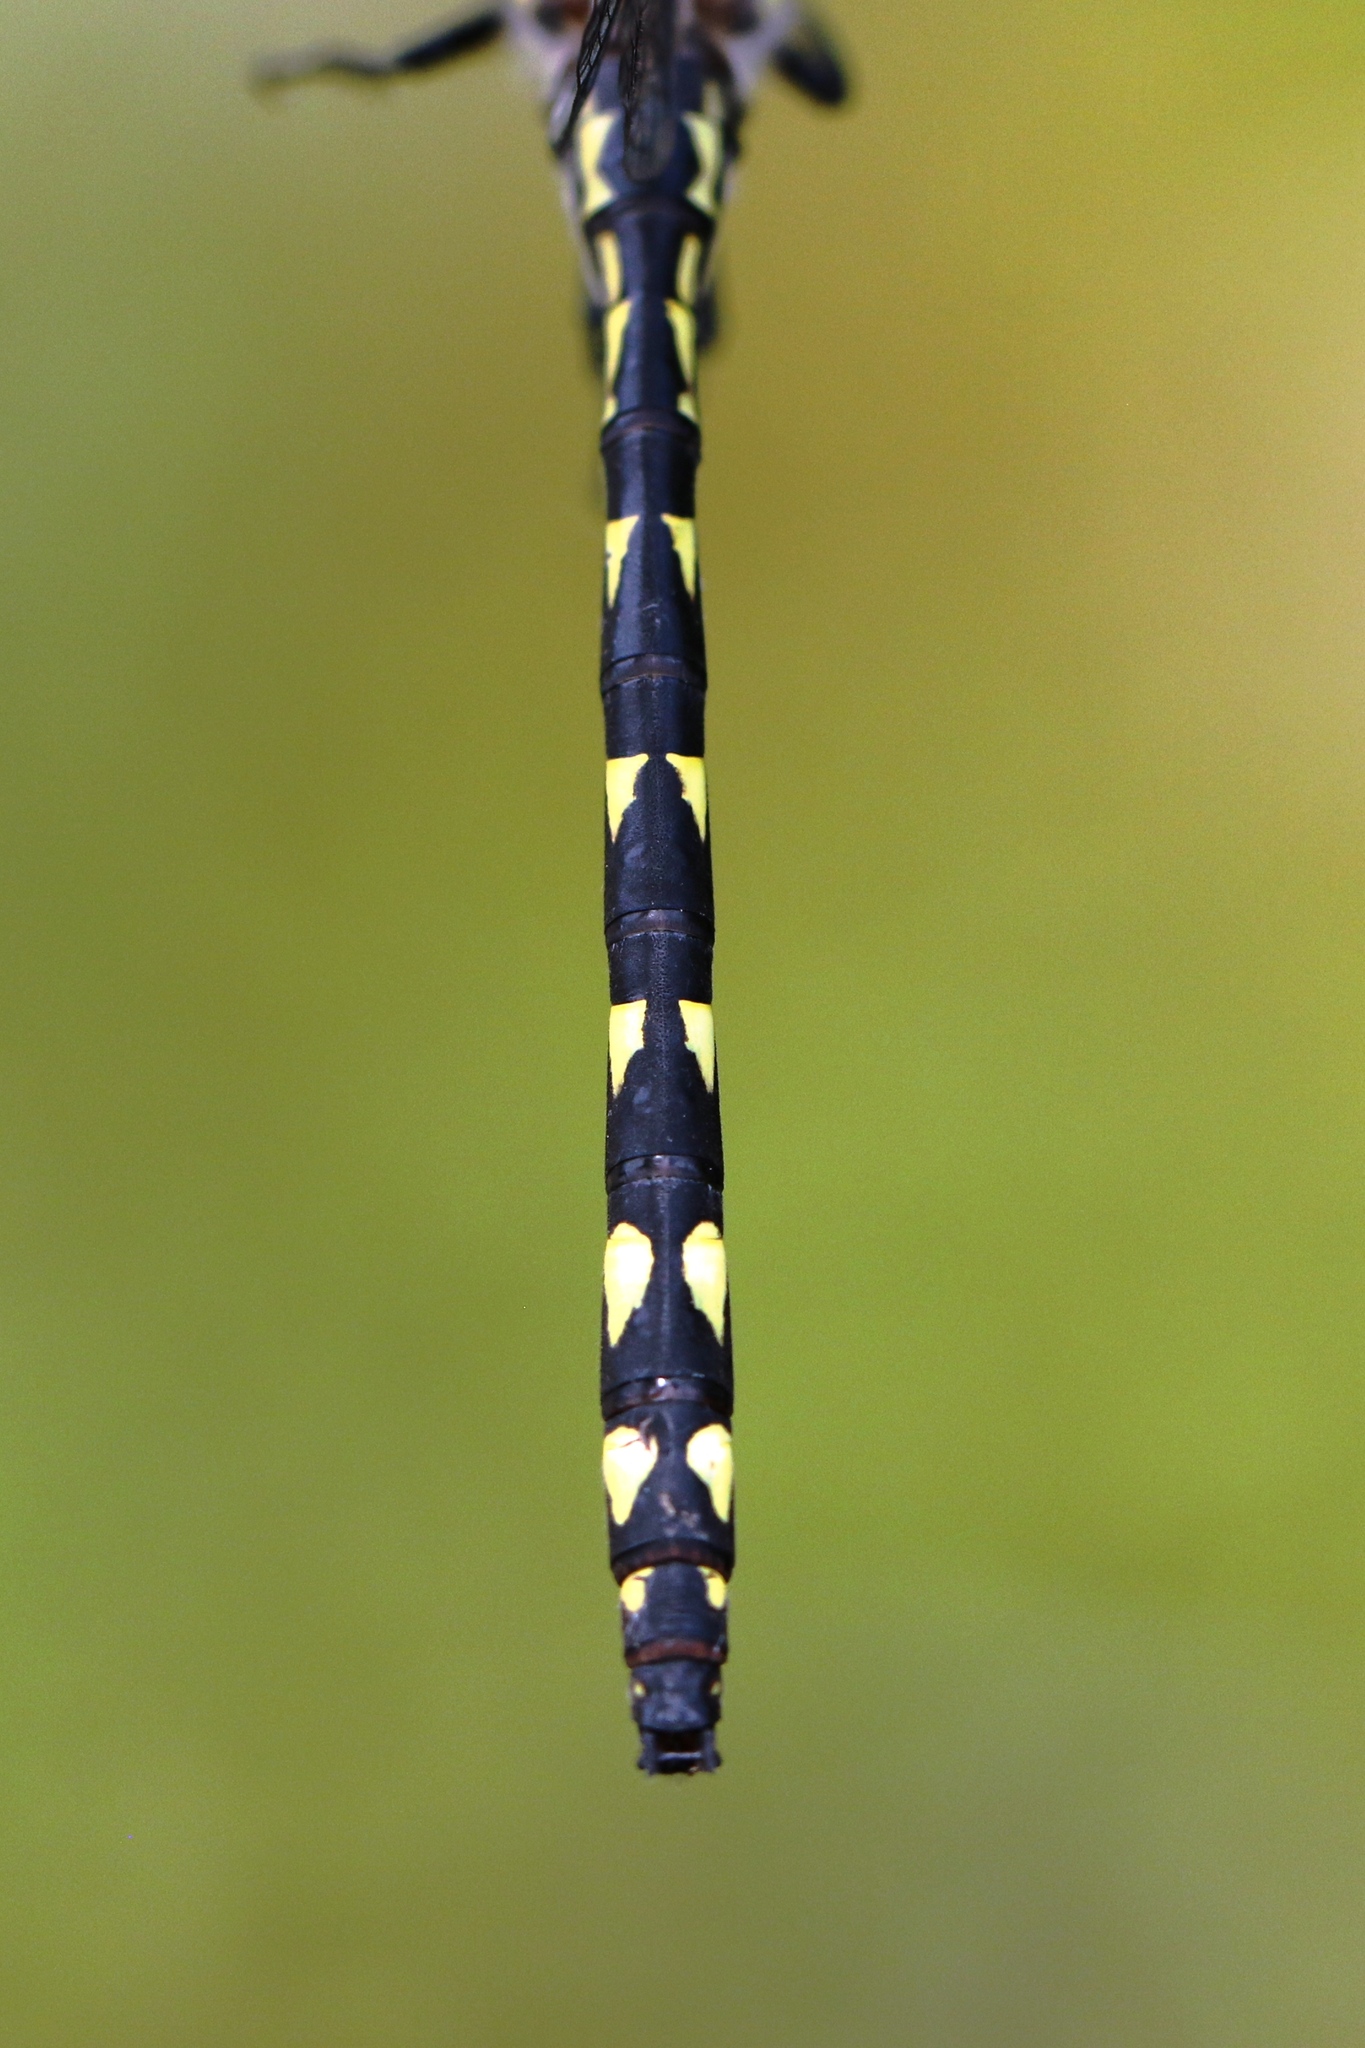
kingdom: Animalia
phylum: Arthropoda
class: Insecta
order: Odonata
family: Cordulegastridae
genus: Cordulegaster
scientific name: Cordulegaster diastatops
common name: Delta-spotted spiketail
